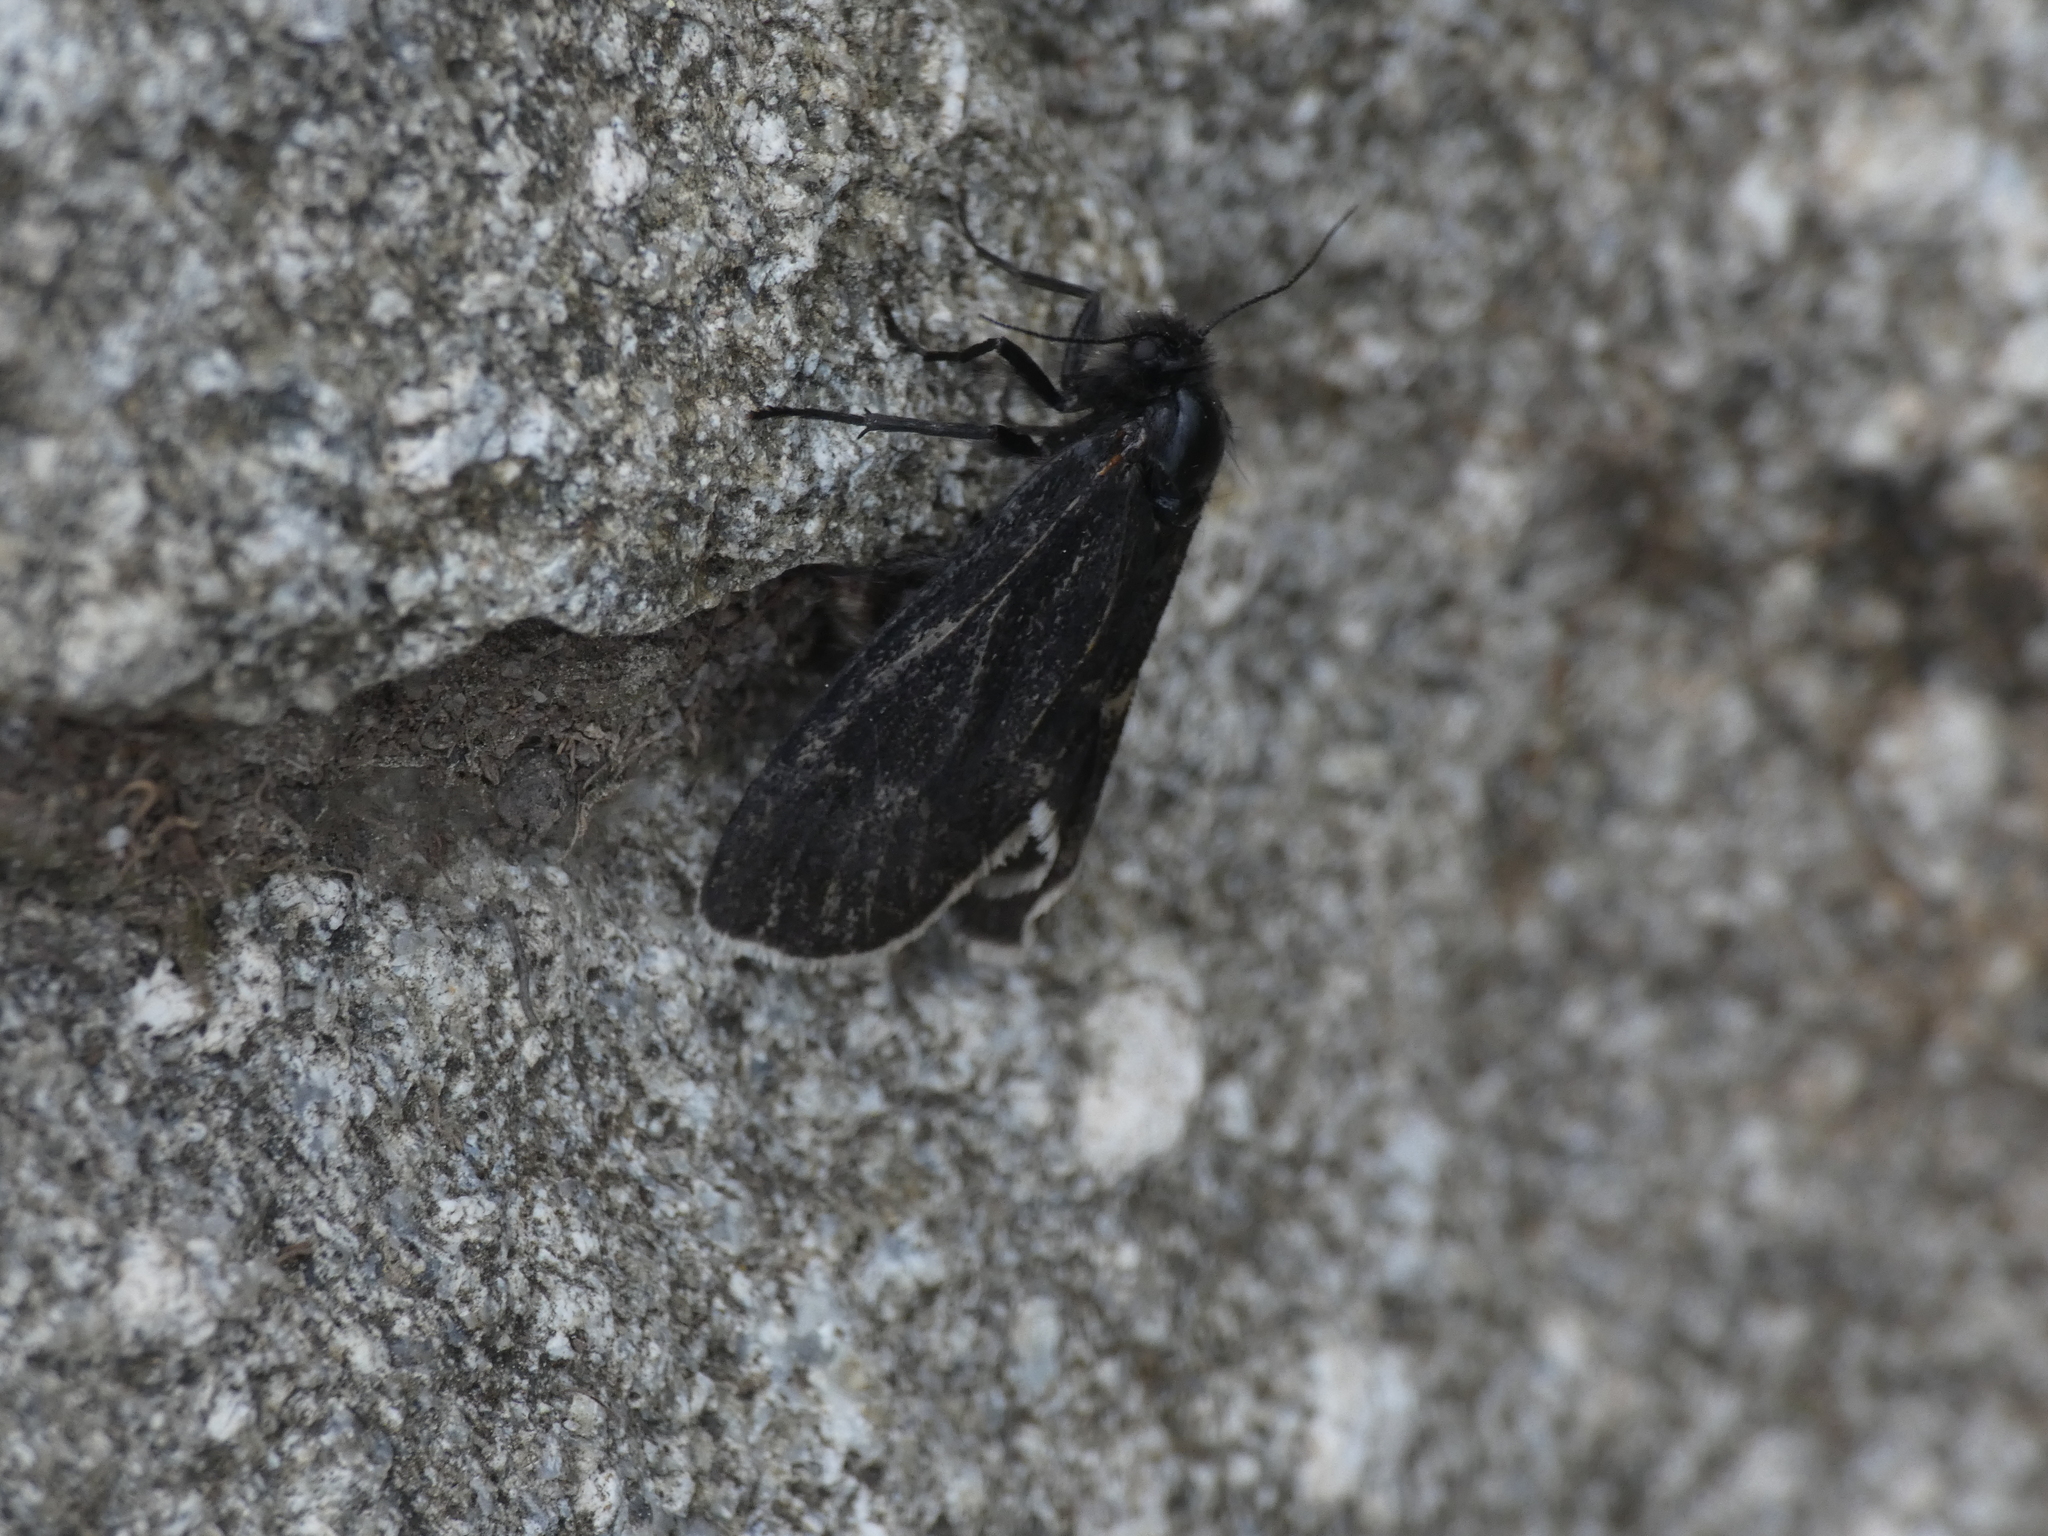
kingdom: Animalia
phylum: Arthropoda
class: Insecta
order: Lepidoptera
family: Psychidae
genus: Typhonia
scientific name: Typhonia ciliaris
